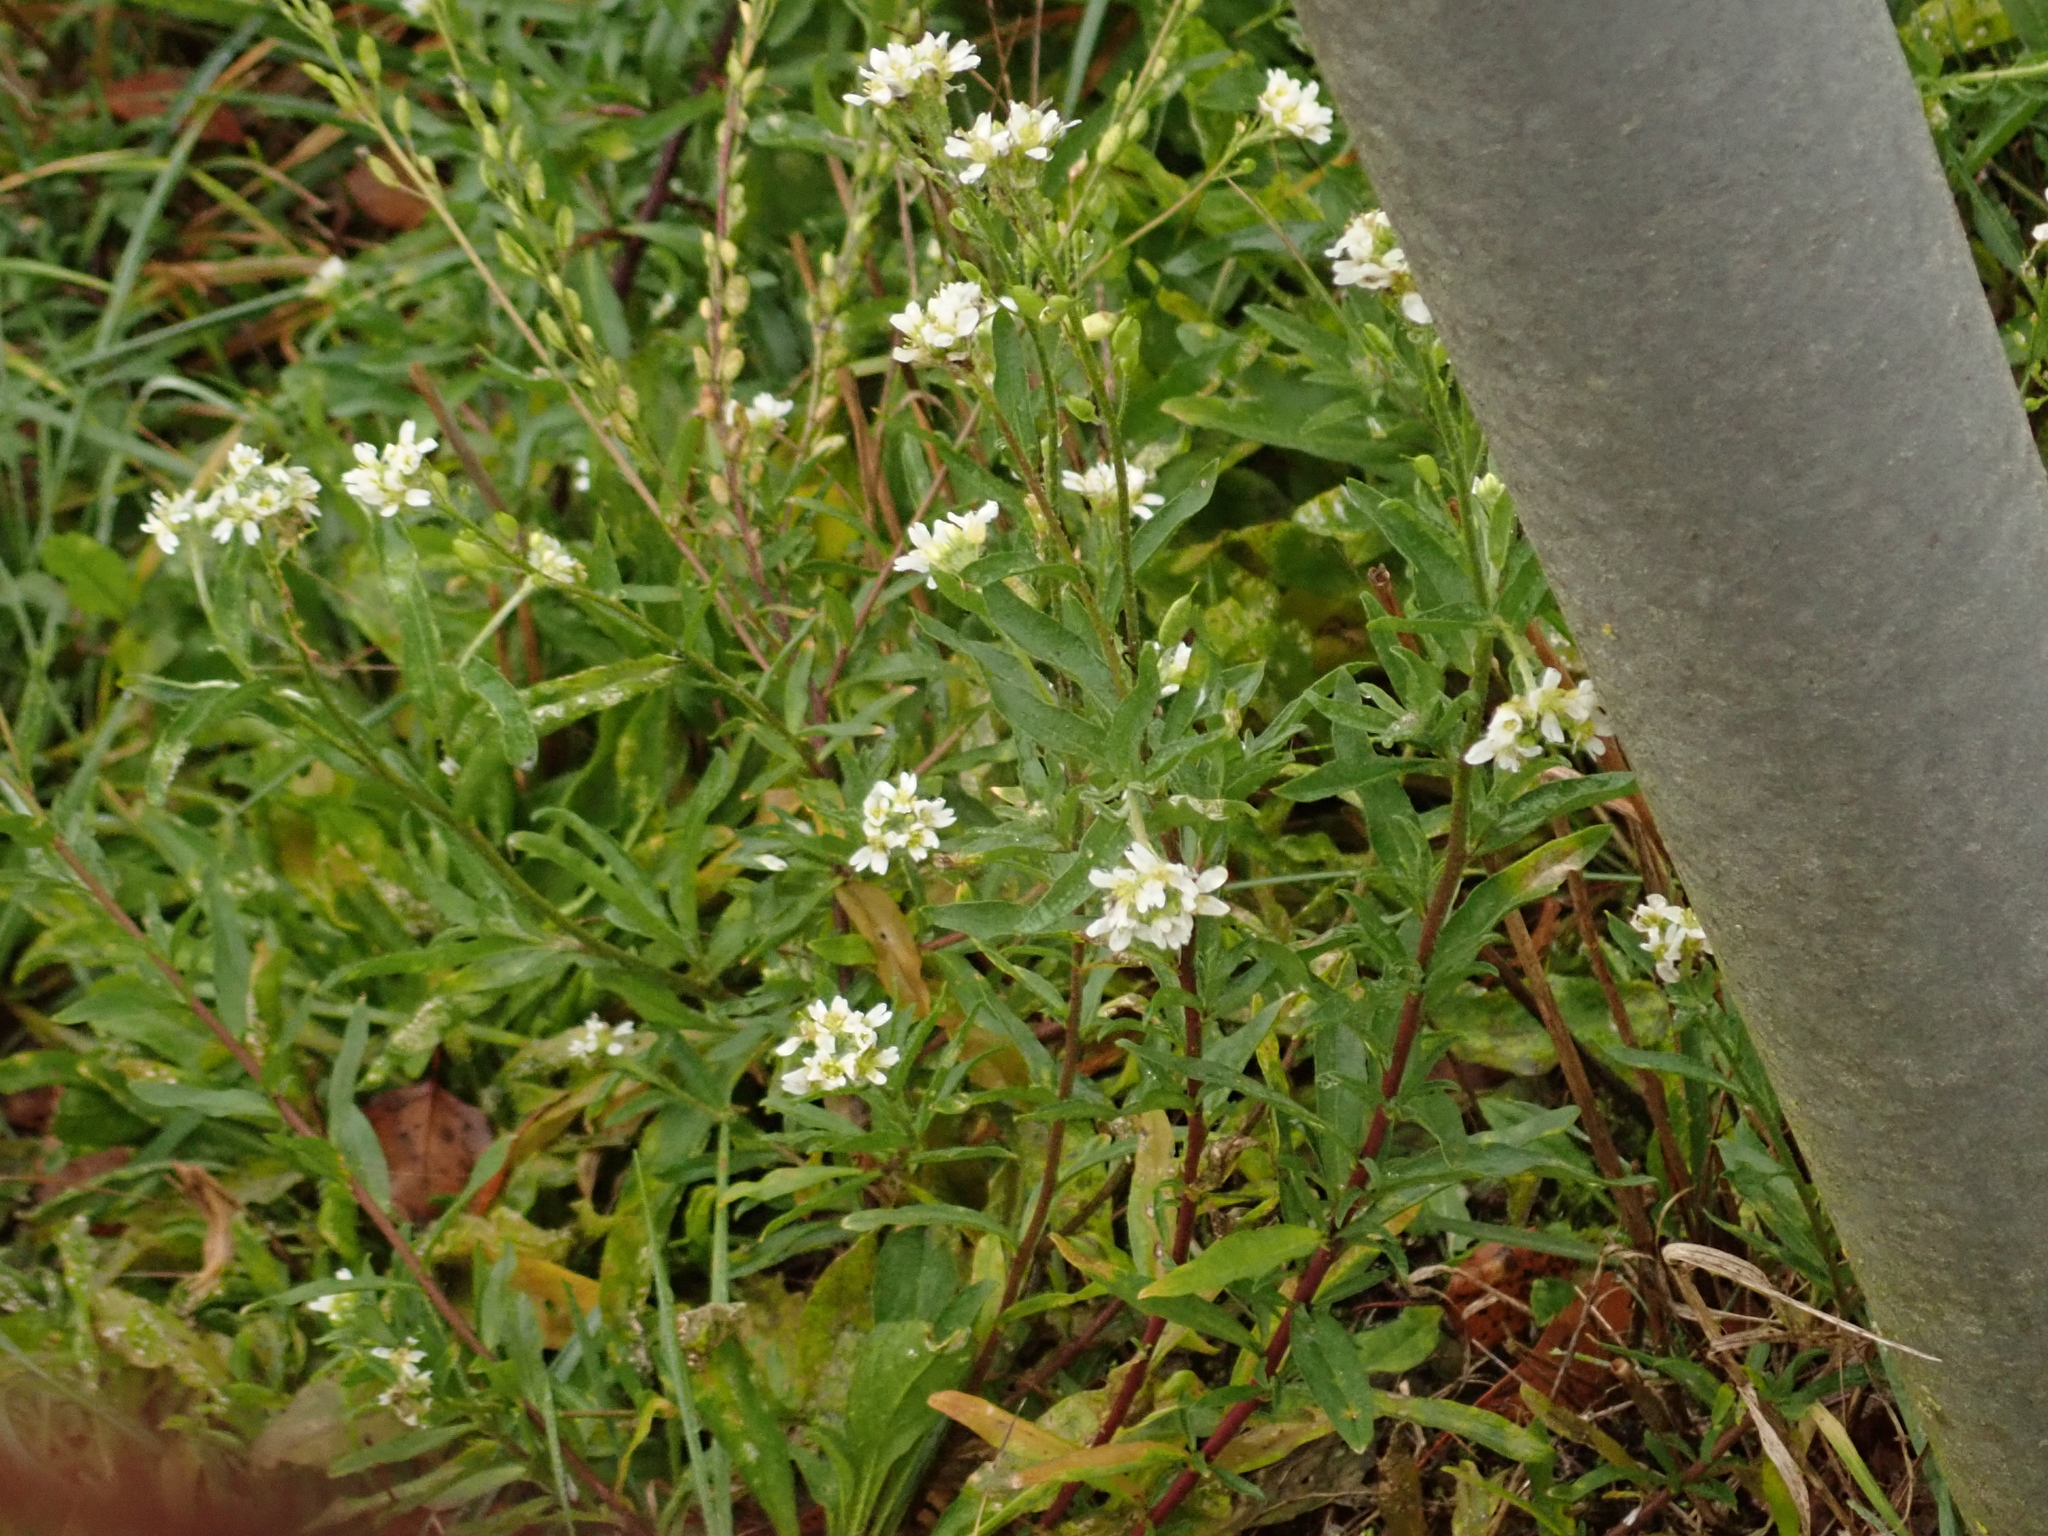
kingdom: Plantae
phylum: Tracheophyta
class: Magnoliopsida
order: Brassicales
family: Brassicaceae
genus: Berteroa
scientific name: Berteroa incana
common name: Hoary alison
